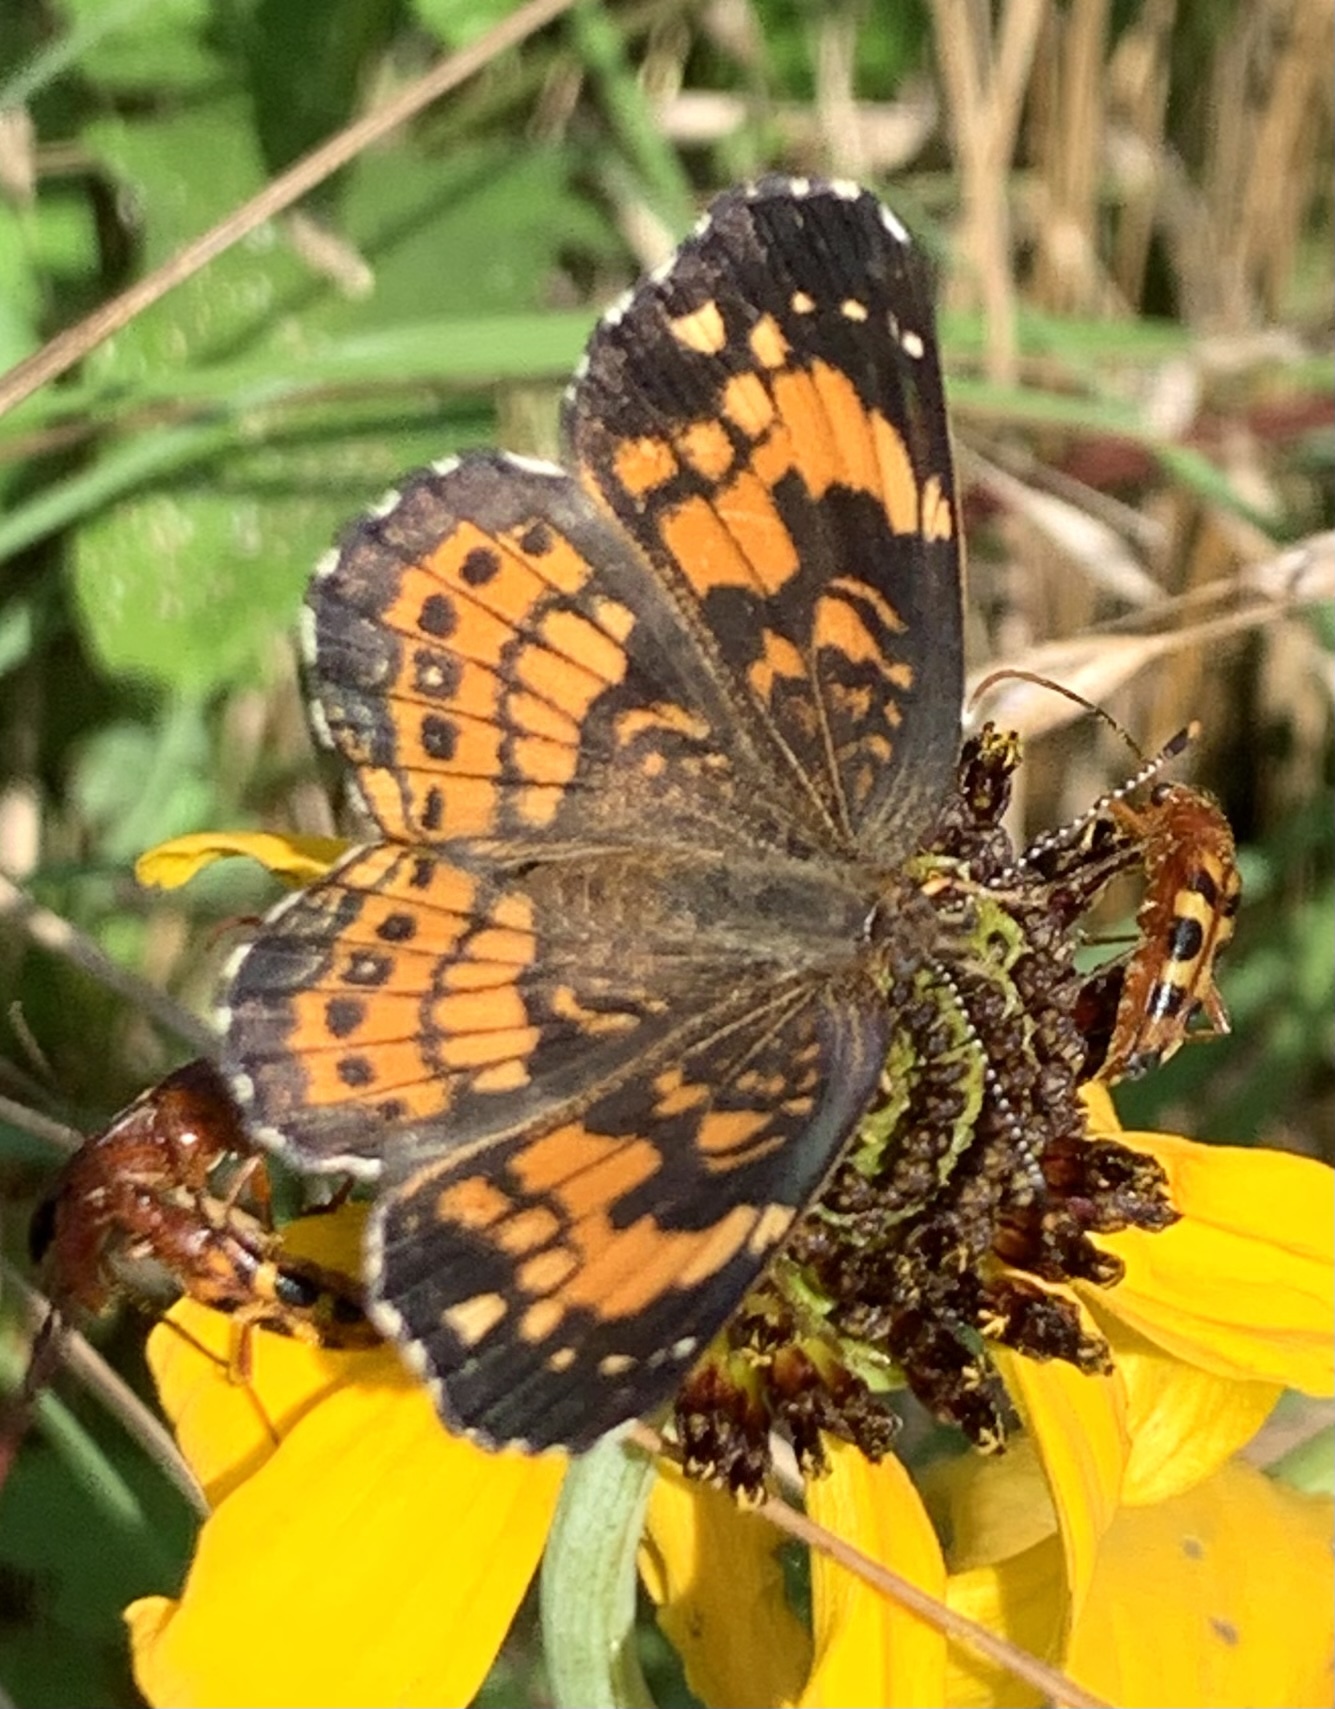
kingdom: Animalia
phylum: Arthropoda
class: Insecta
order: Lepidoptera
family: Nymphalidae
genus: Chlosyne
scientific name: Chlosyne nycteis
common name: Silvery checkerspot
